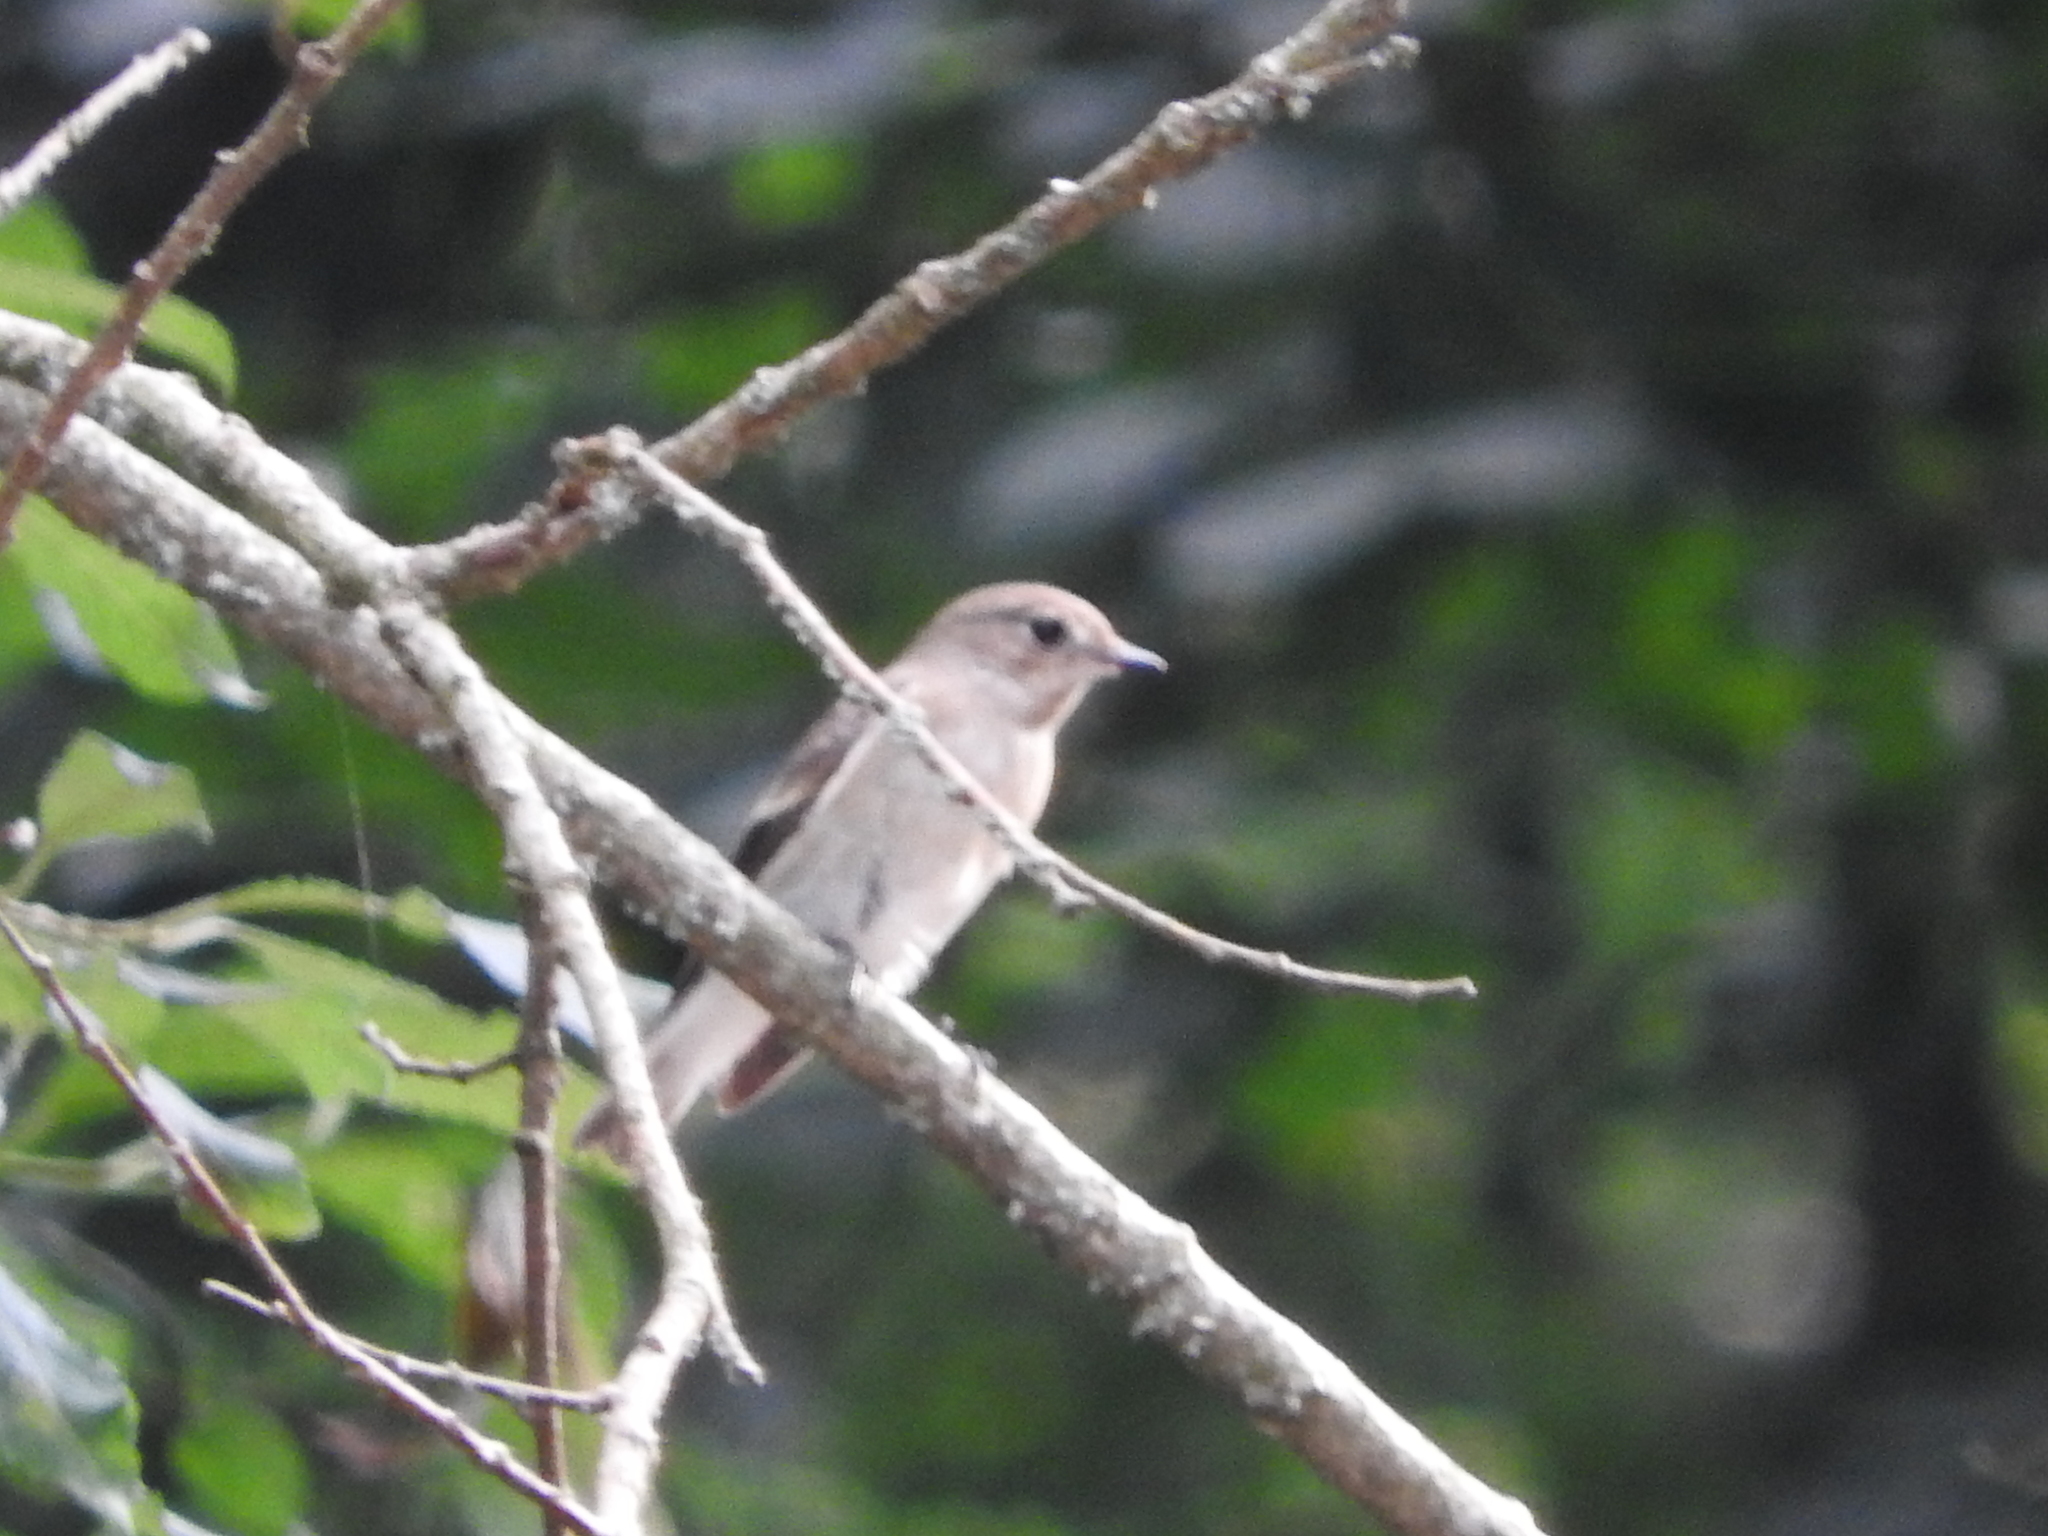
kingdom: Animalia
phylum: Chordata
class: Aves
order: Passeriformes
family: Muscicapidae
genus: Ficedula
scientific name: Ficedula hypoleuca
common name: European pied flycatcher
